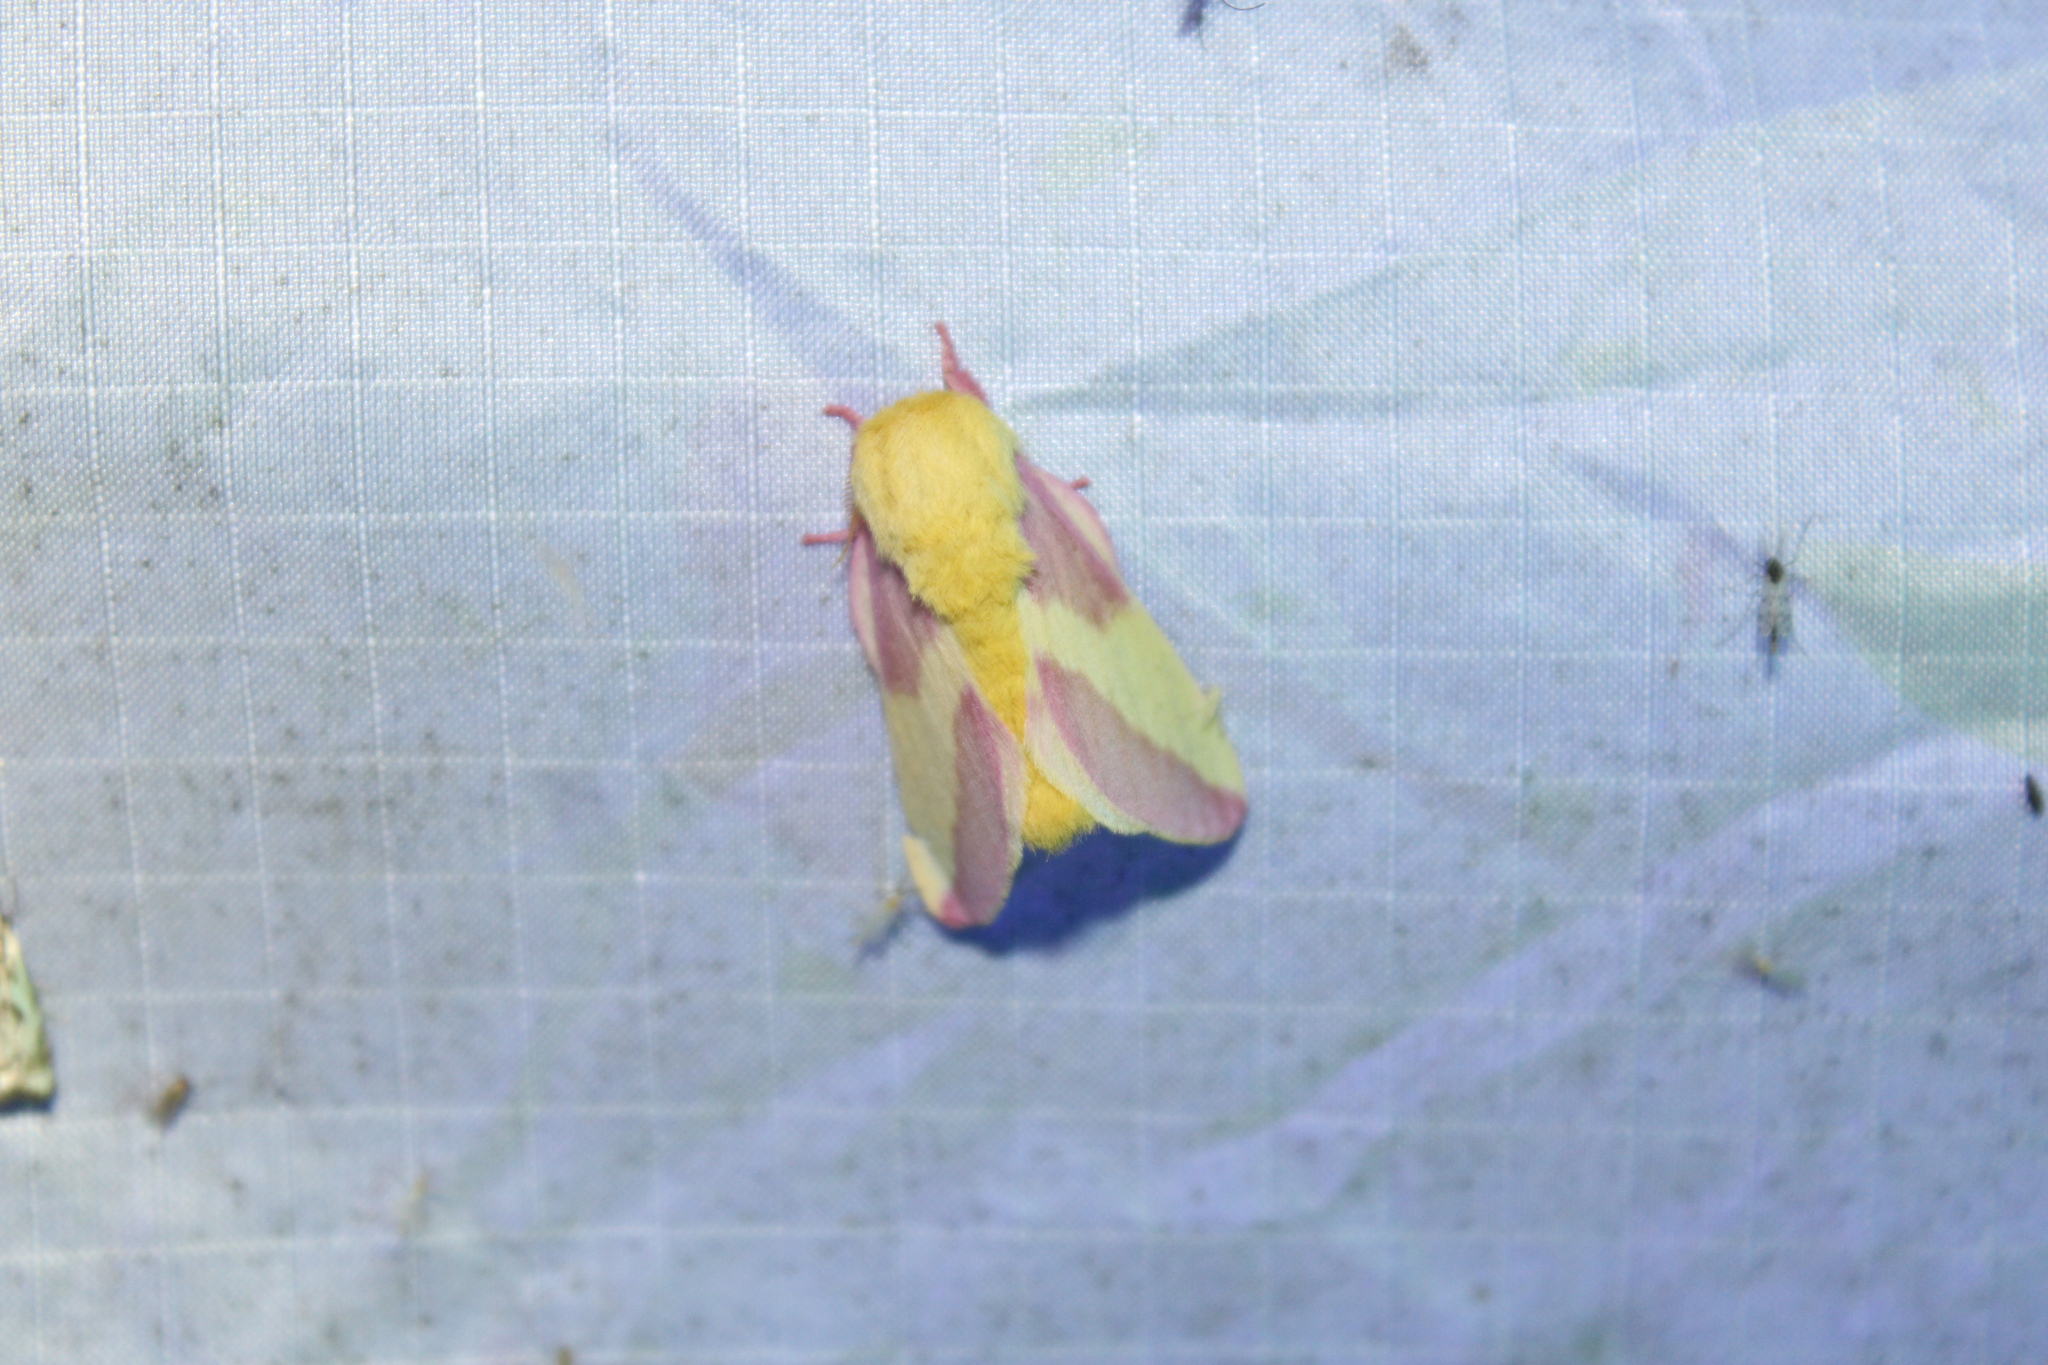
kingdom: Animalia
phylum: Arthropoda
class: Insecta
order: Lepidoptera
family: Saturniidae
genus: Dryocampa
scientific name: Dryocampa rubicunda
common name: Rosy maple moth
